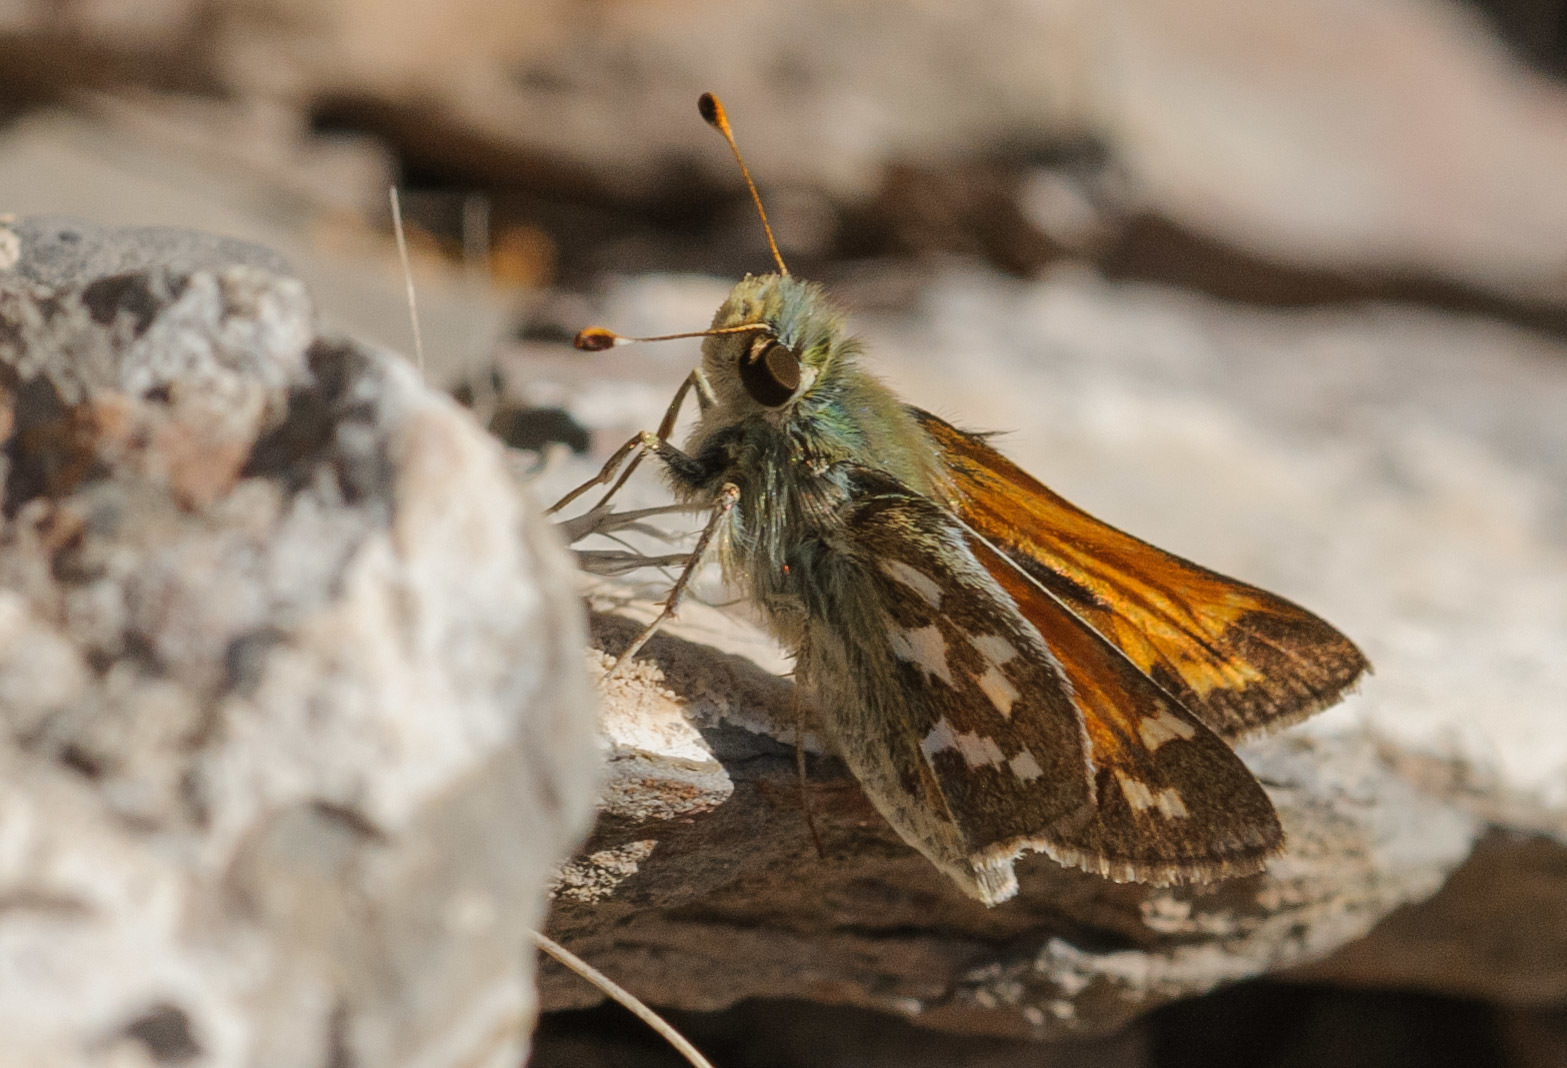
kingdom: Animalia
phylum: Arthropoda
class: Insecta
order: Lepidoptera
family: Hesperiidae
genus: Hesperia
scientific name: Hesperia juba
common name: Juba skipper
